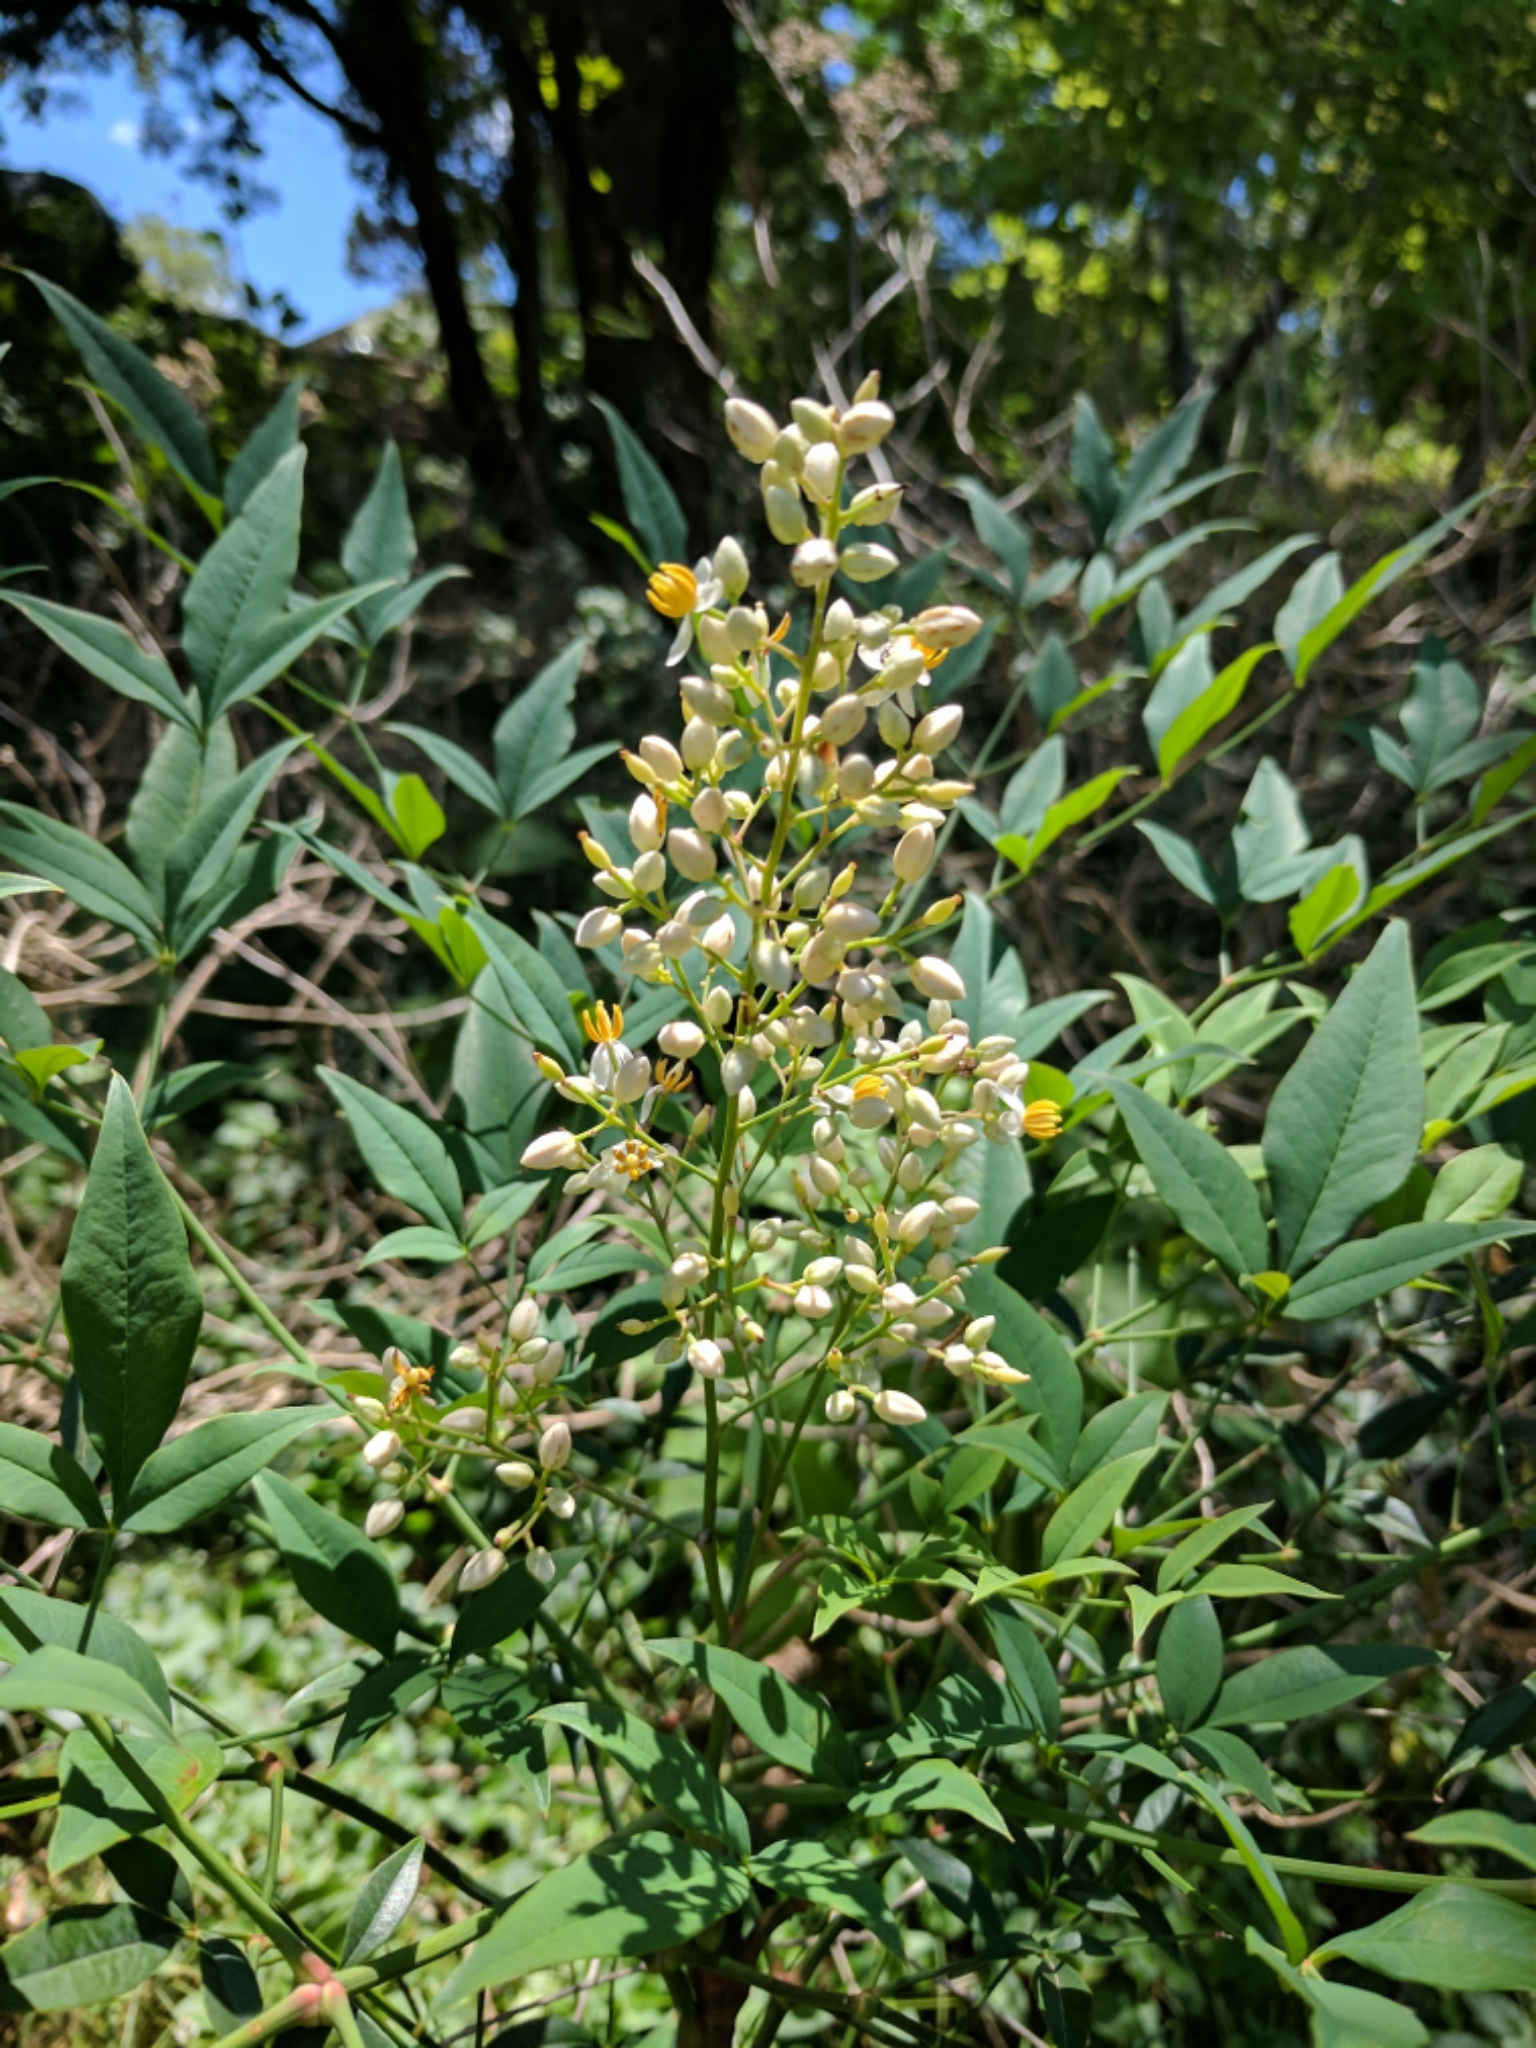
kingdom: Plantae
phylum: Tracheophyta
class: Magnoliopsida
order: Ranunculales
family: Berberidaceae
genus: Nandina
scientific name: Nandina domestica
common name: Sacred bamboo
